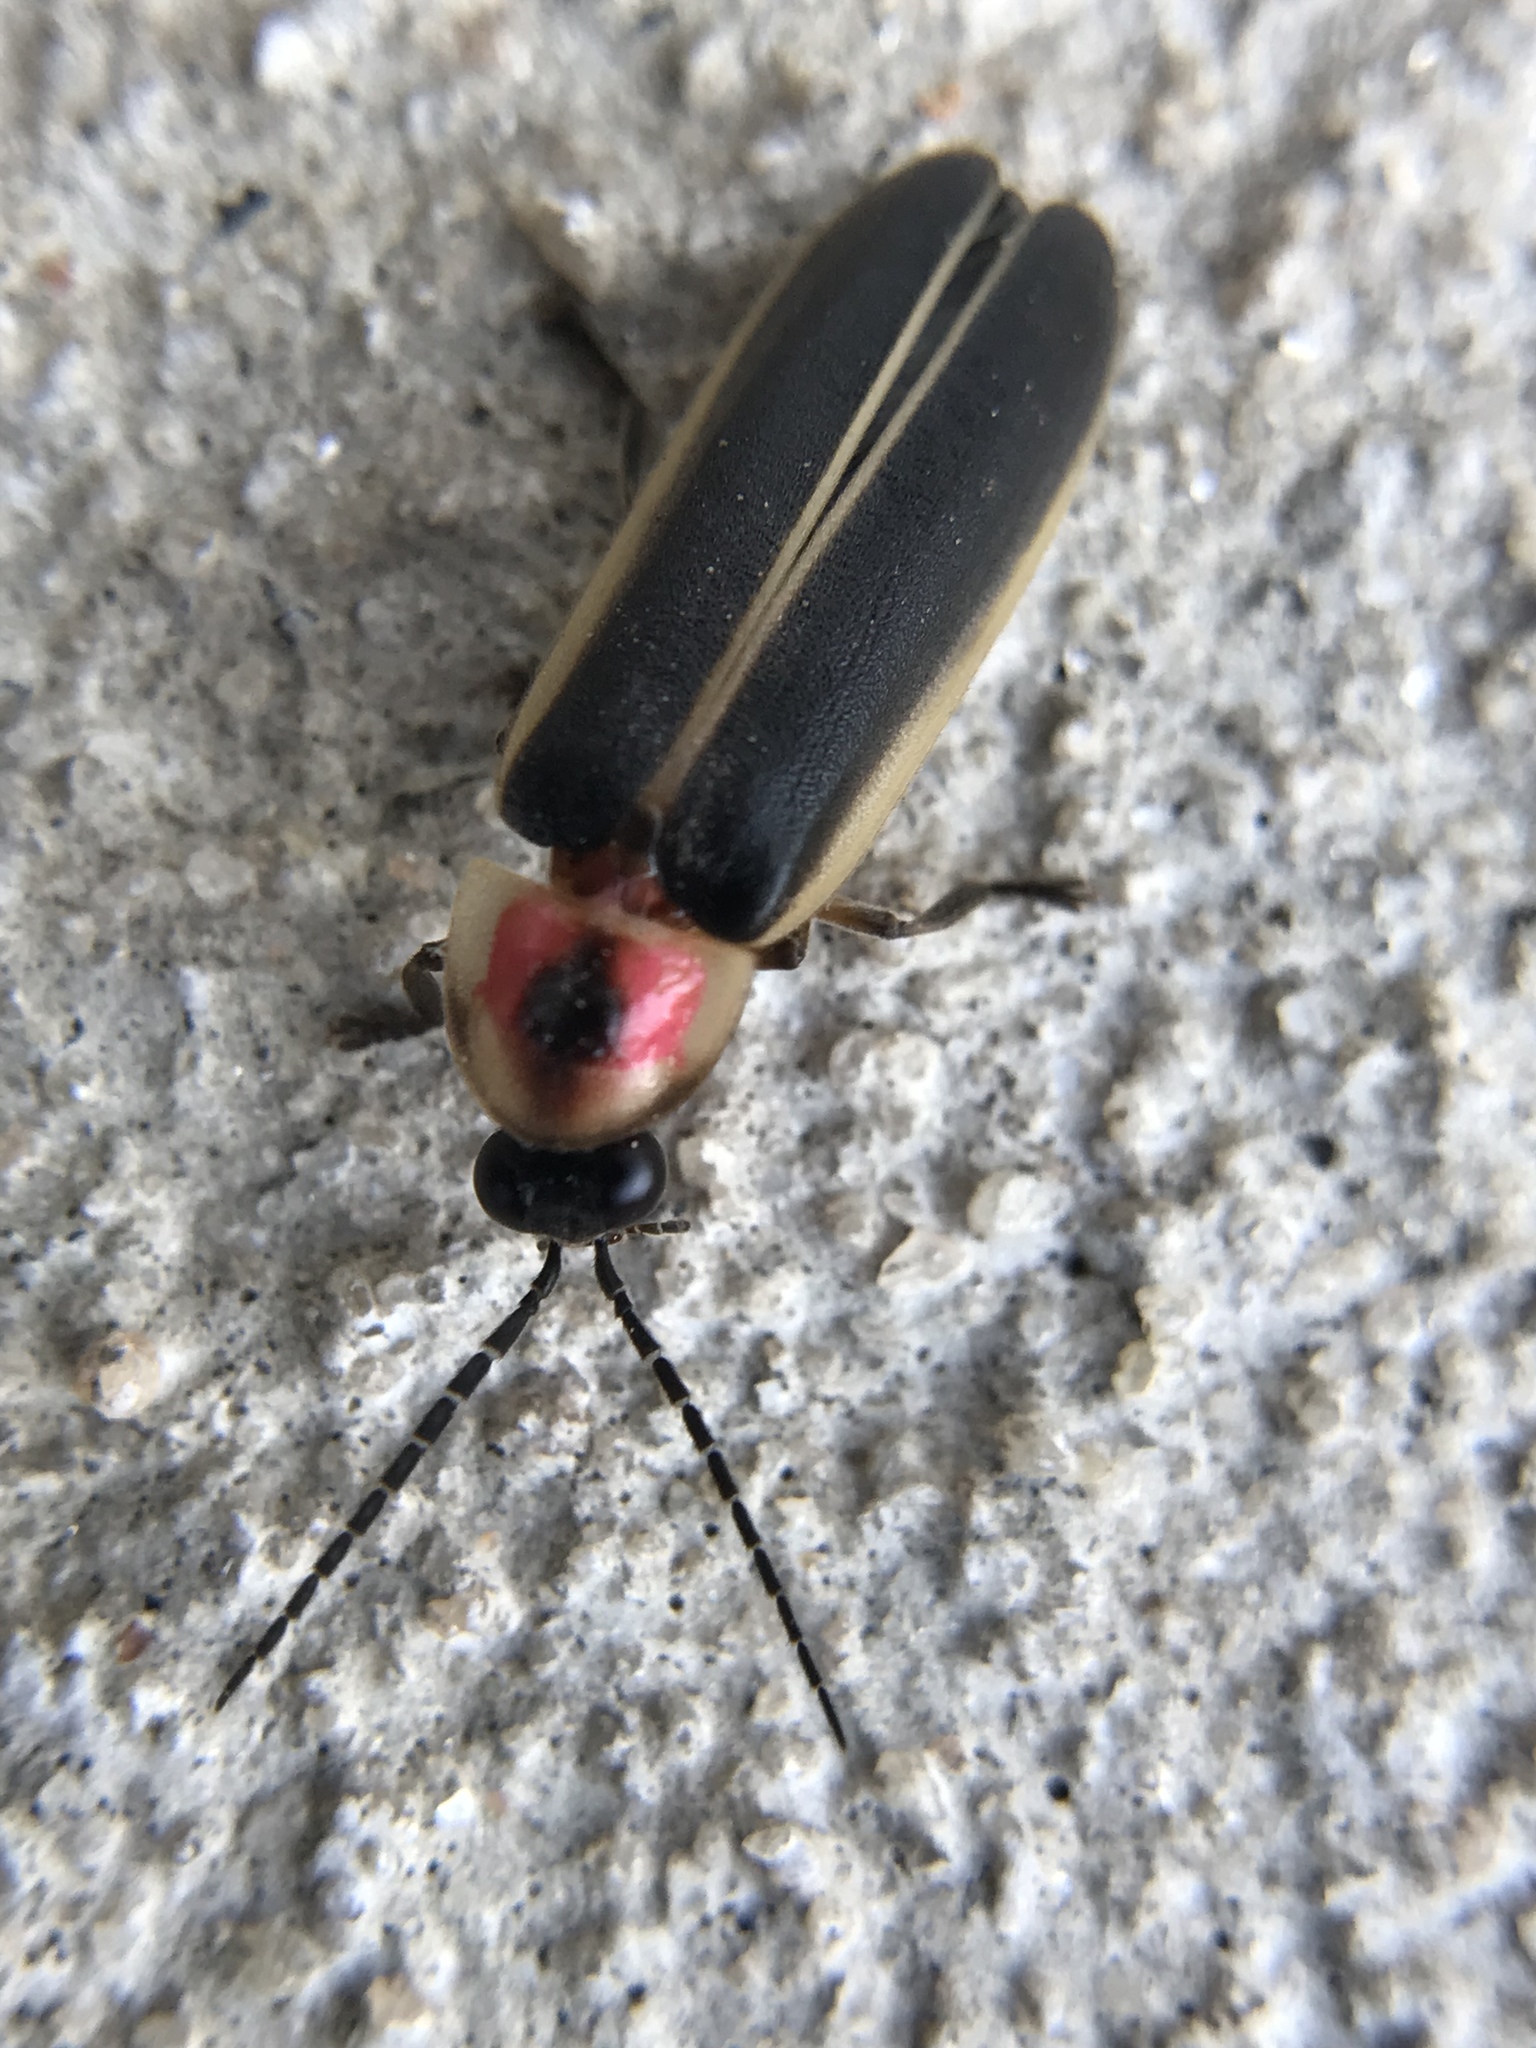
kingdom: Animalia
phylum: Arthropoda
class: Insecta
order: Coleoptera
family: Lampyridae
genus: Photinus
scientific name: Photinus pyralis
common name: Big dipper firefly
